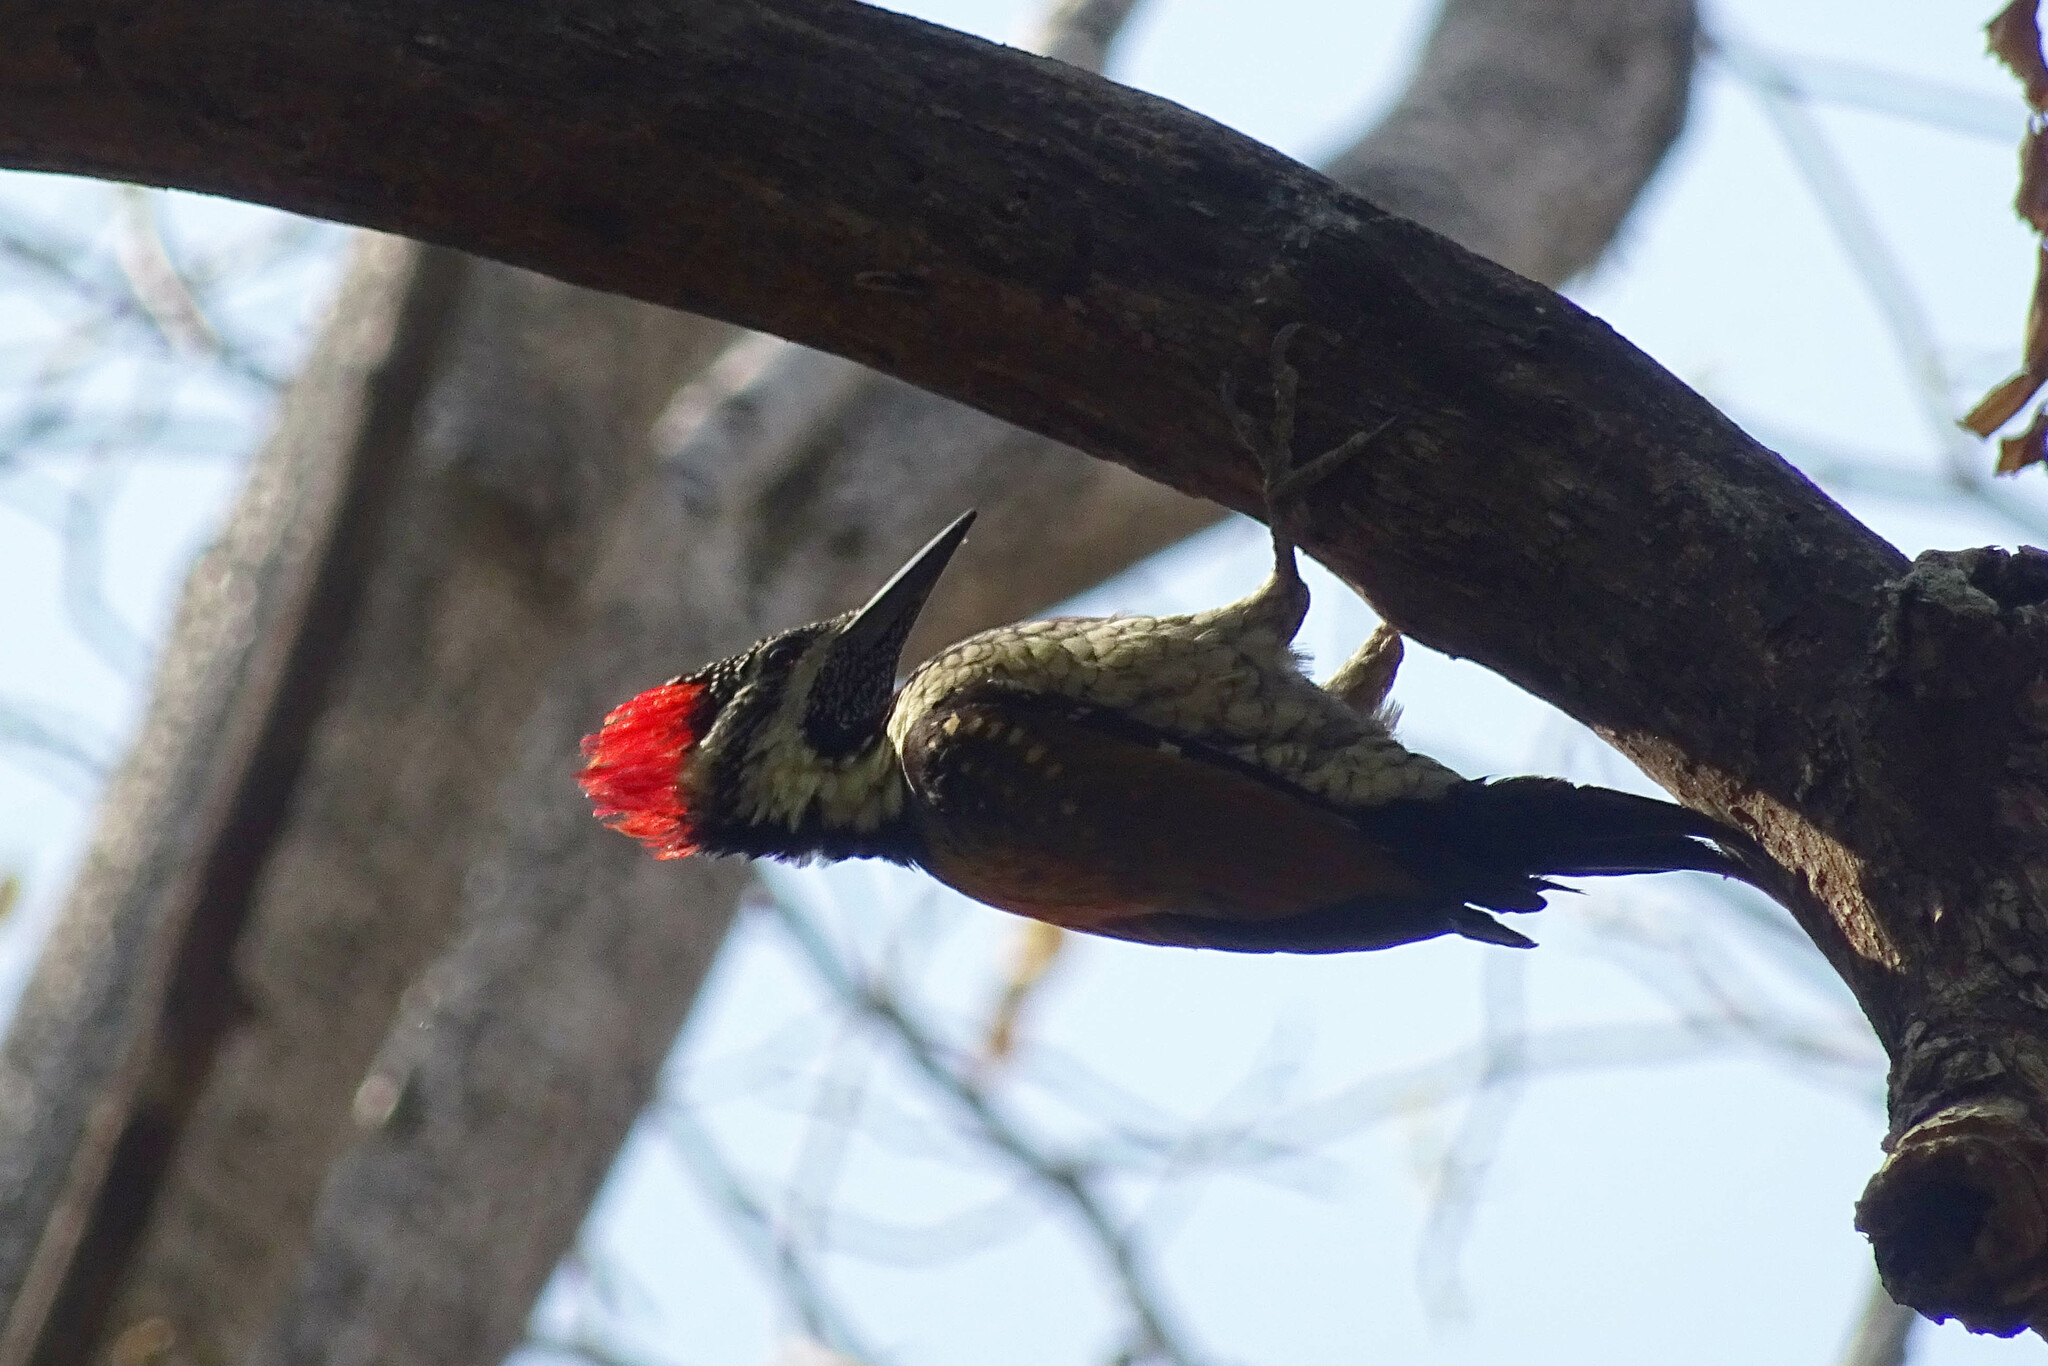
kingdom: Animalia
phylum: Chordata
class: Aves
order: Piciformes
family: Picidae
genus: Dinopium
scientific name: Dinopium benghalense
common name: Black-rumped flameback
